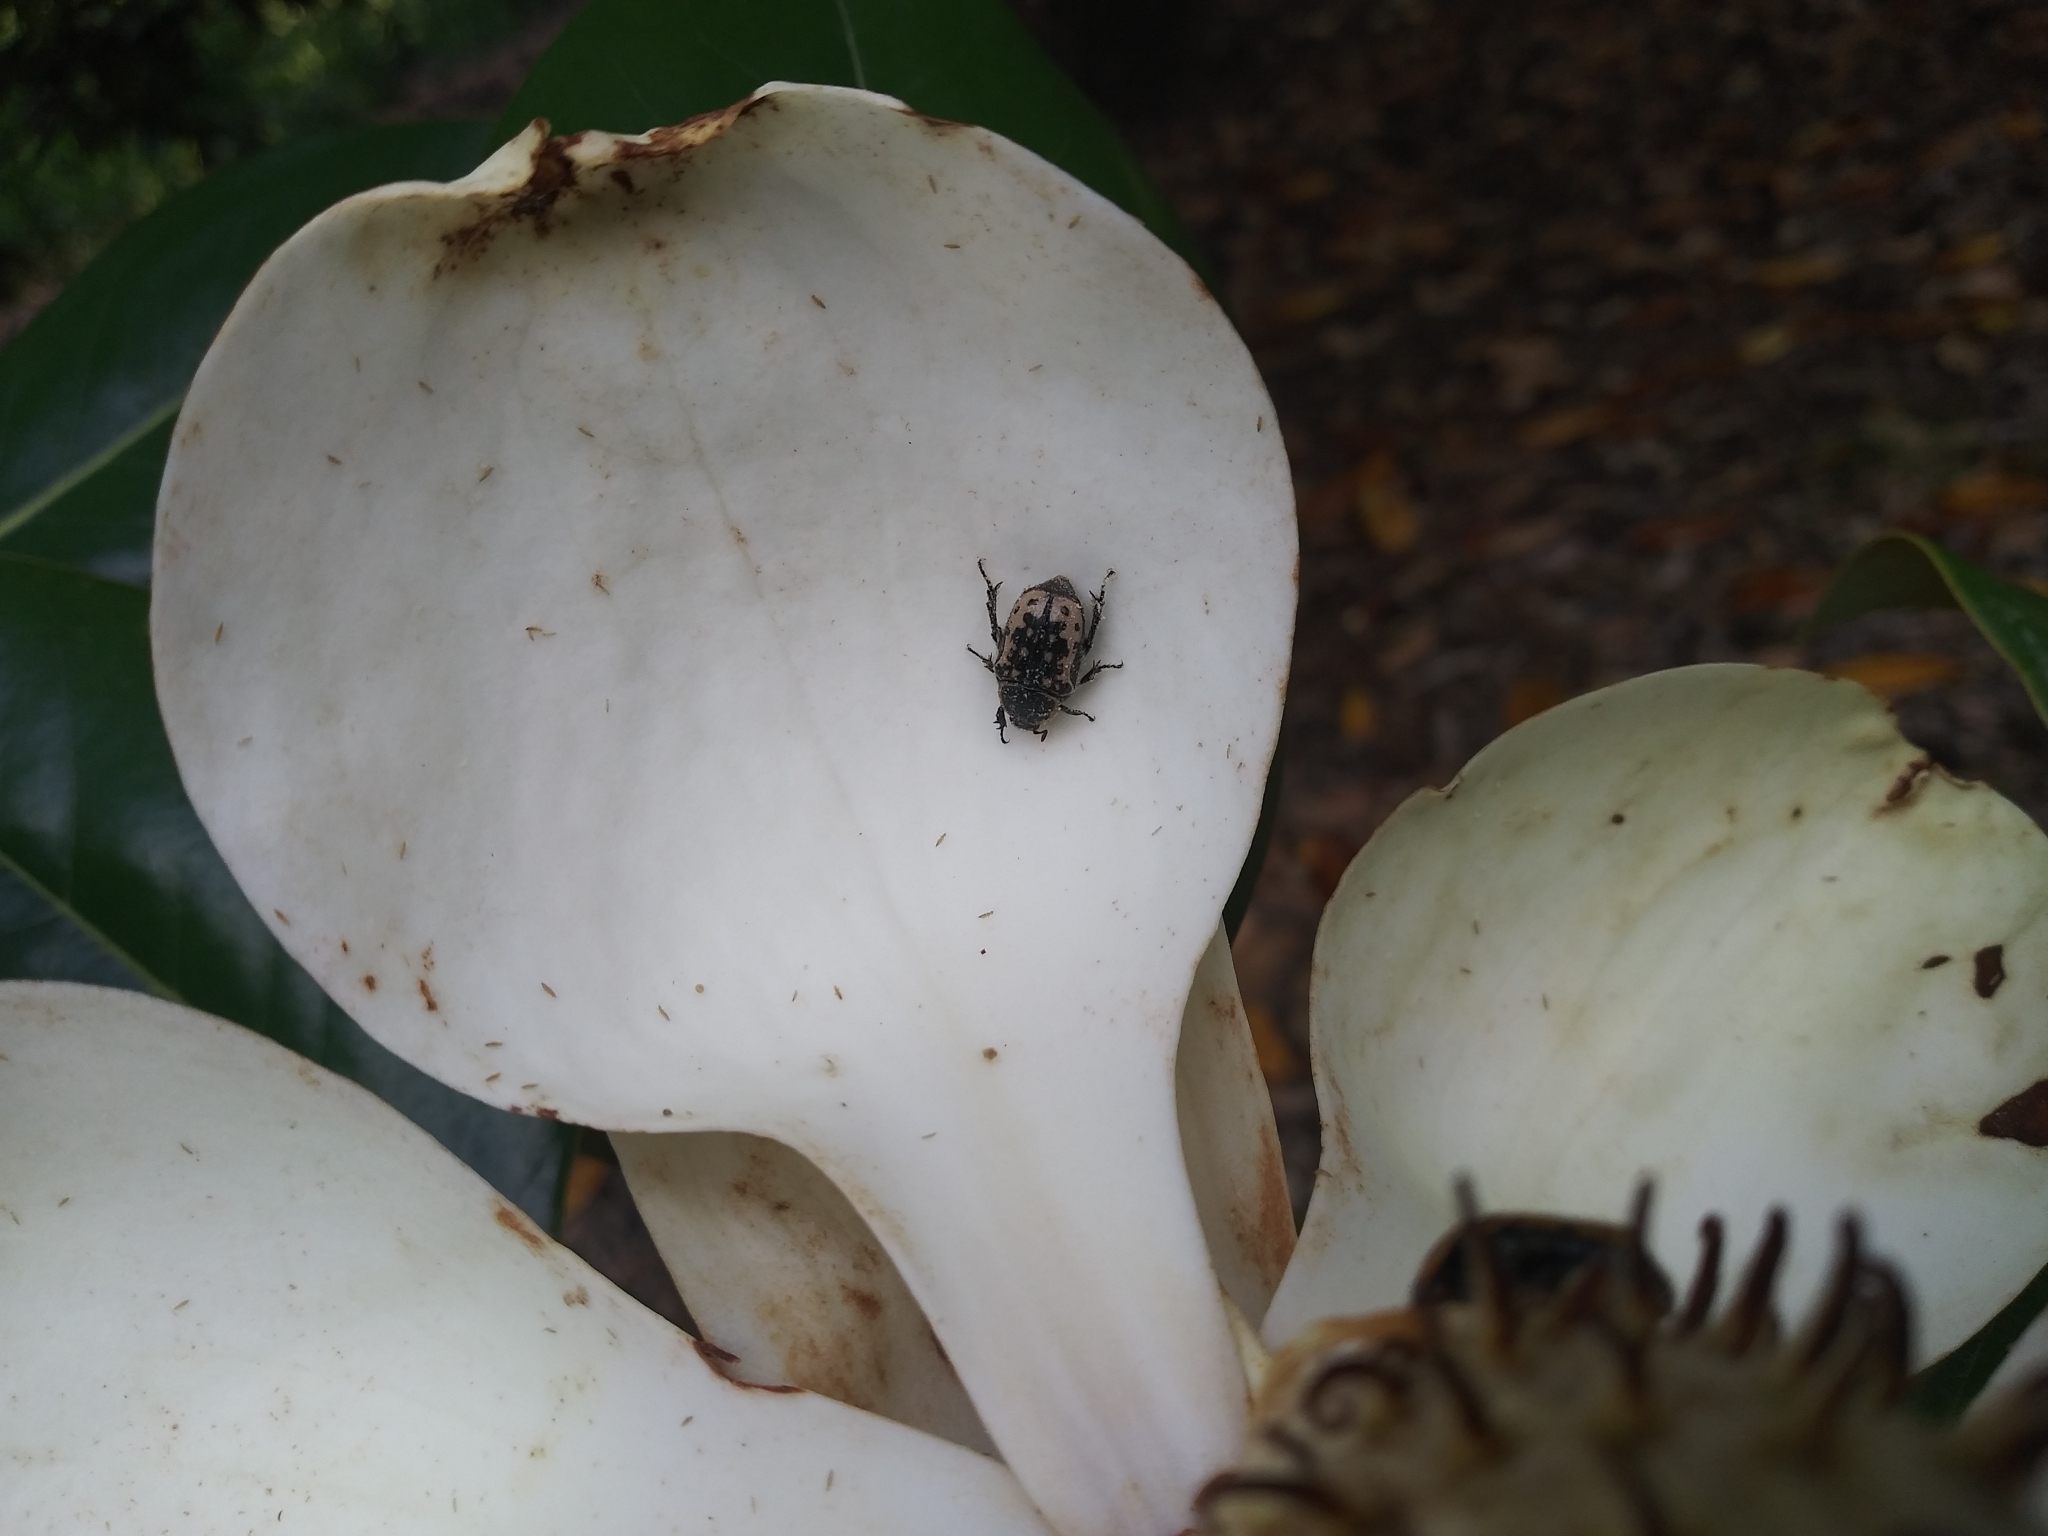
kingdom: Animalia
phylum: Arthropoda
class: Insecta
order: Coleoptera
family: Scarabaeidae
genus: Euphoria
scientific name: Euphoria kernii
